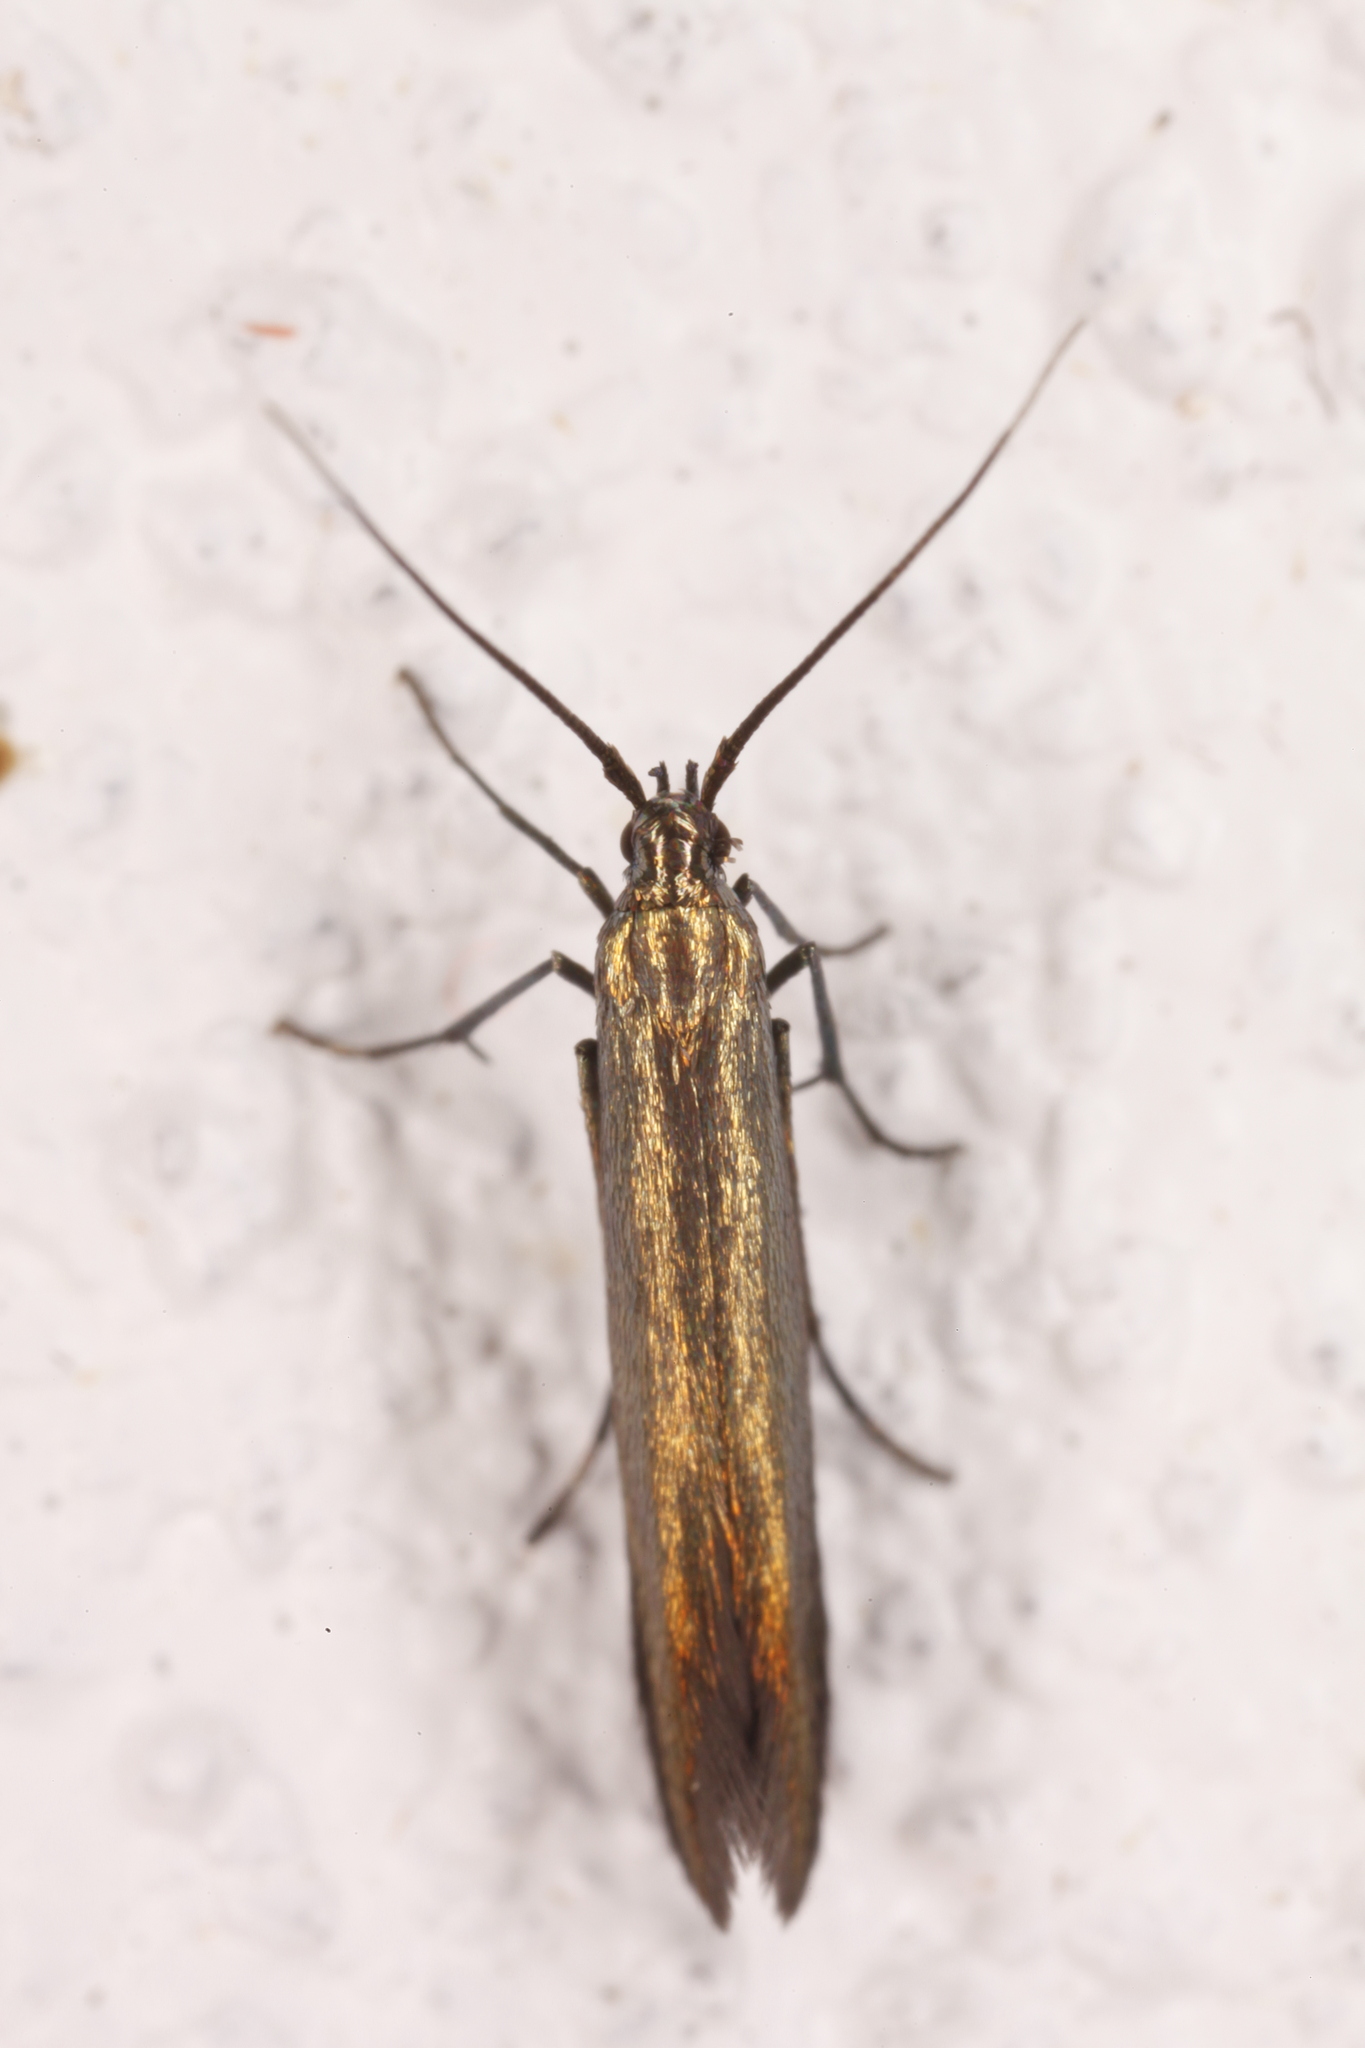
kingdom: Animalia
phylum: Arthropoda
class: Insecta
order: Lepidoptera
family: Coleophoridae
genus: Coleophora
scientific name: Coleophora trifolii
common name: Large clover case-bearer
